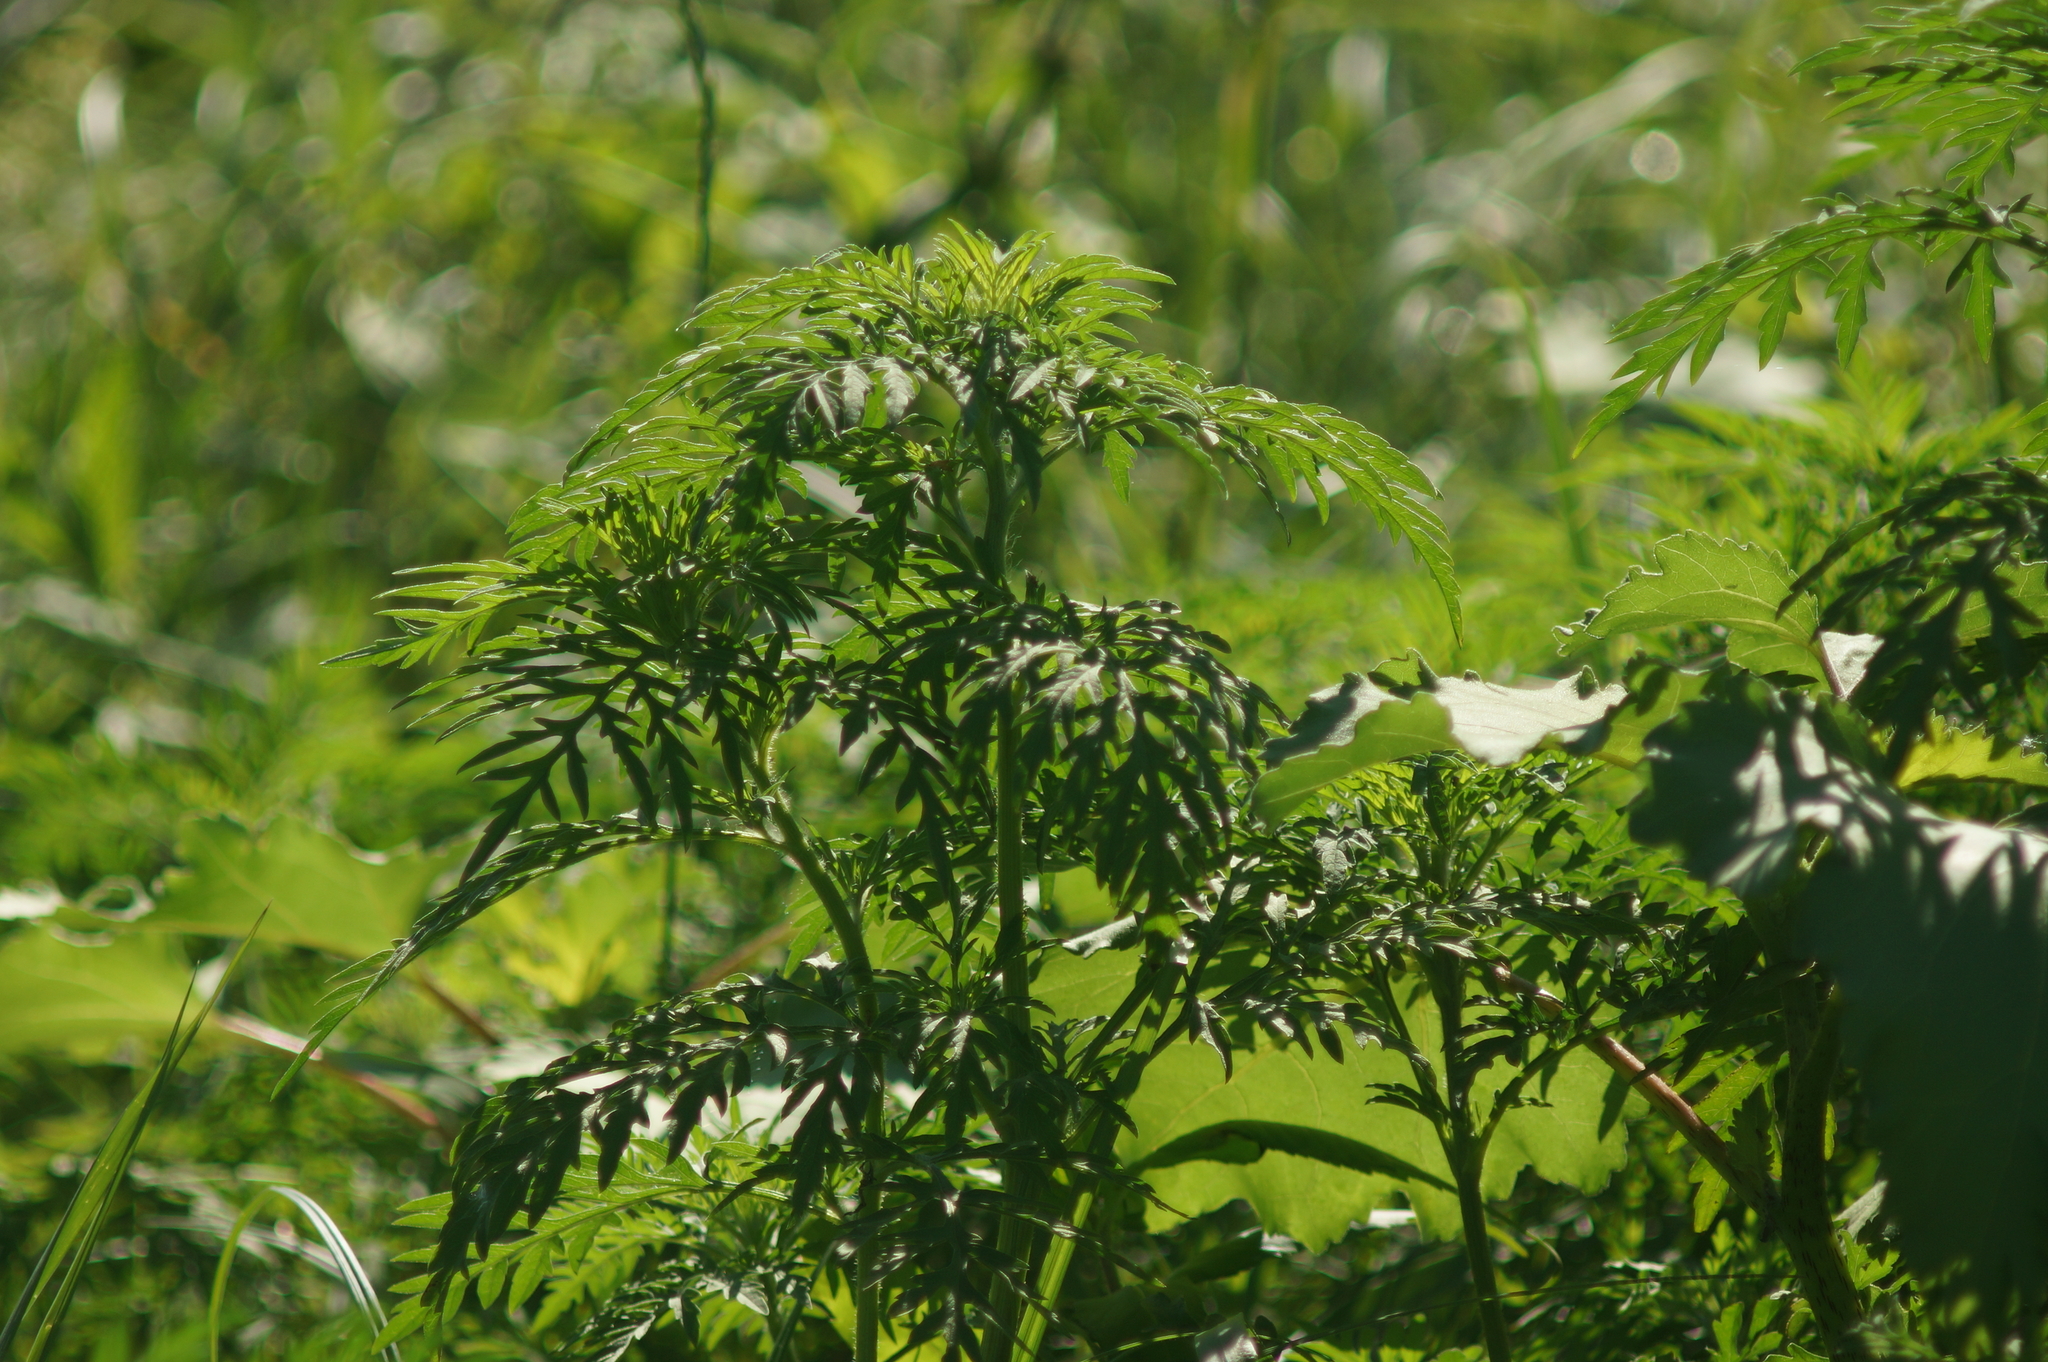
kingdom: Plantae
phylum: Tracheophyta
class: Magnoliopsida
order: Asterales
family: Asteraceae
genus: Ambrosia
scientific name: Ambrosia artemisiifolia
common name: Annual ragweed
